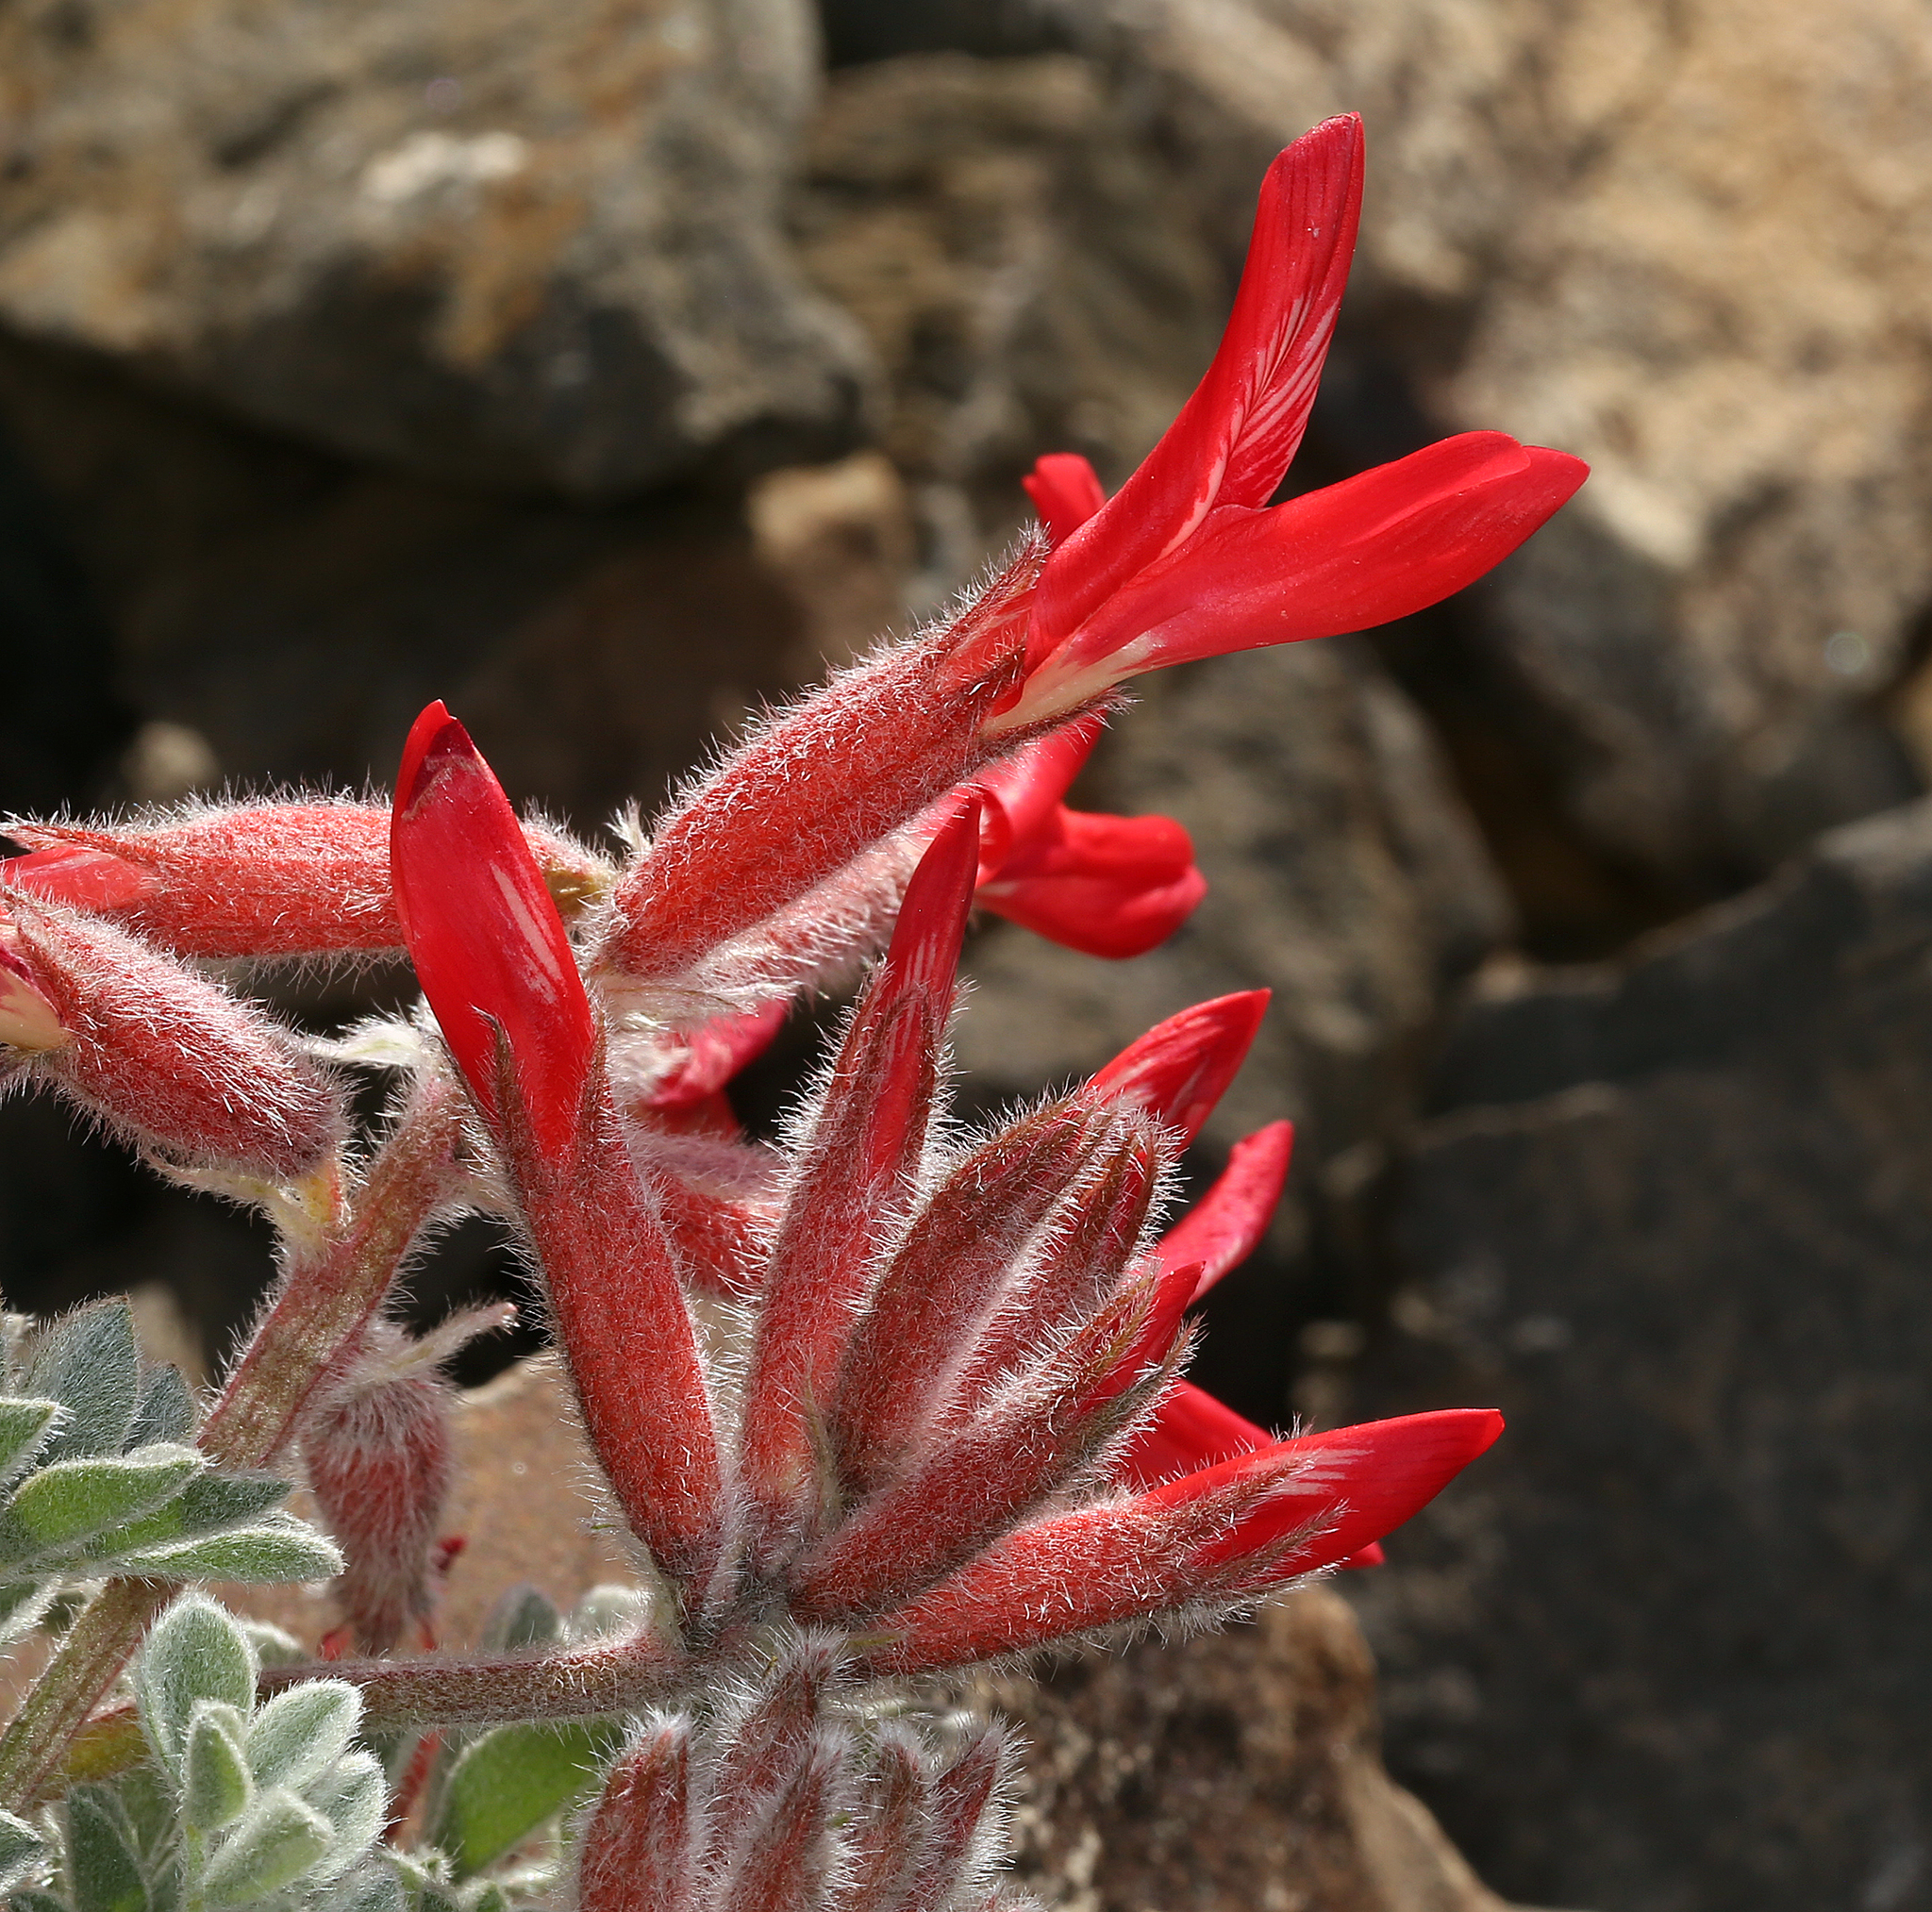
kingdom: Plantae
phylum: Tracheophyta
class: Magnoliopsida
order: Fabales
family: Fabaceae
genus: Astragalus
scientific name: Astragalus coccineus
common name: Scarlet milk-vetch
